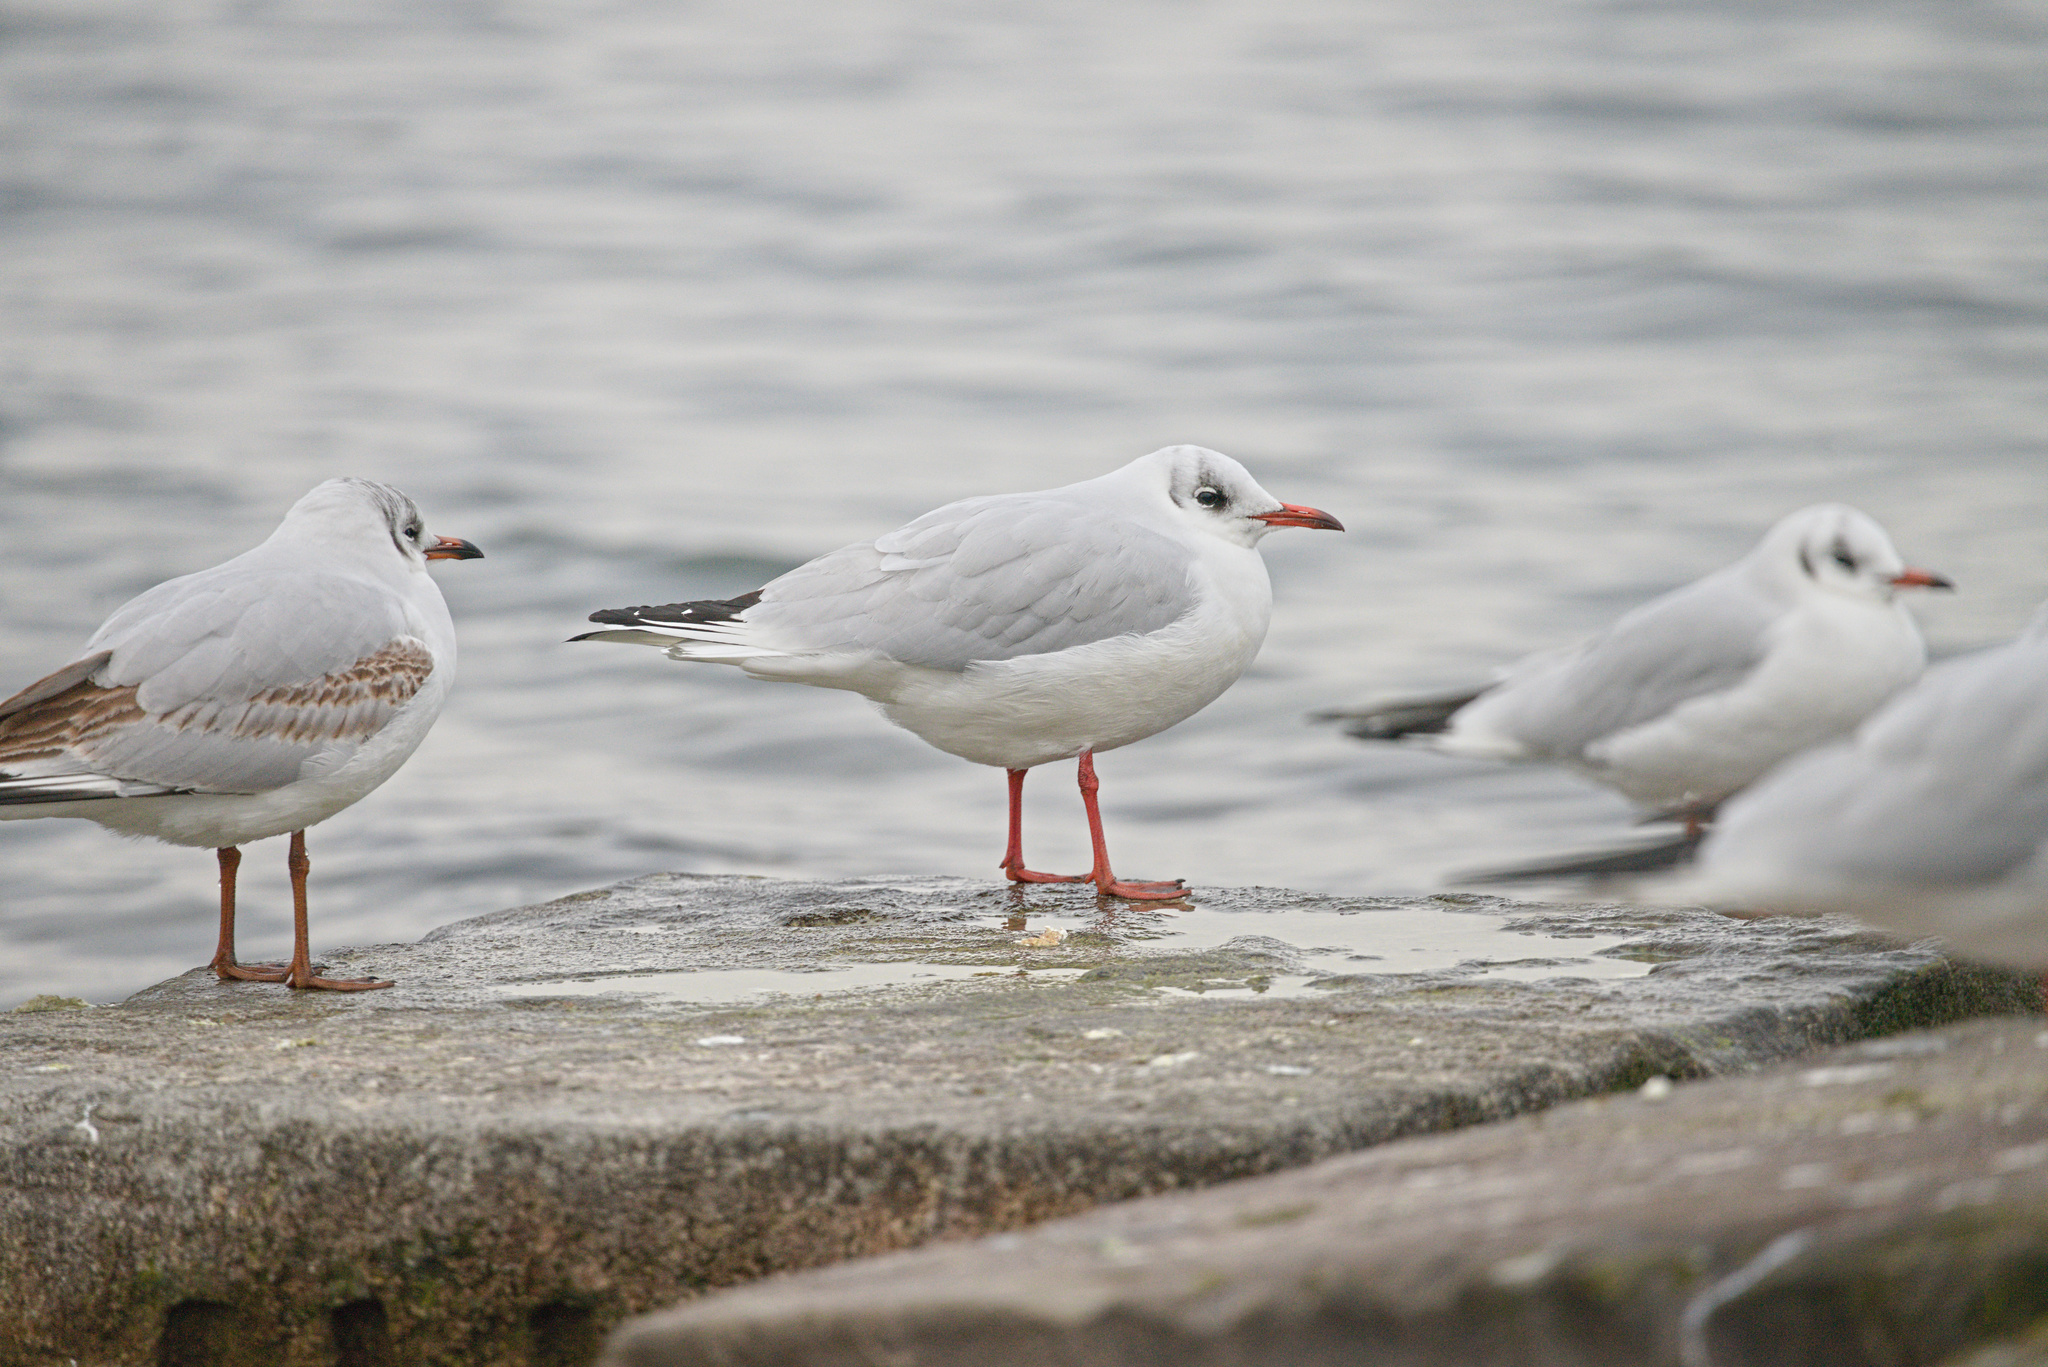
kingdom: Animalia
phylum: Chordata
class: Aves
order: Charadriiformes
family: Laridae
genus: Chroicocephalus
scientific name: Chroicocephalus ridibundus
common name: Black-headed gull
